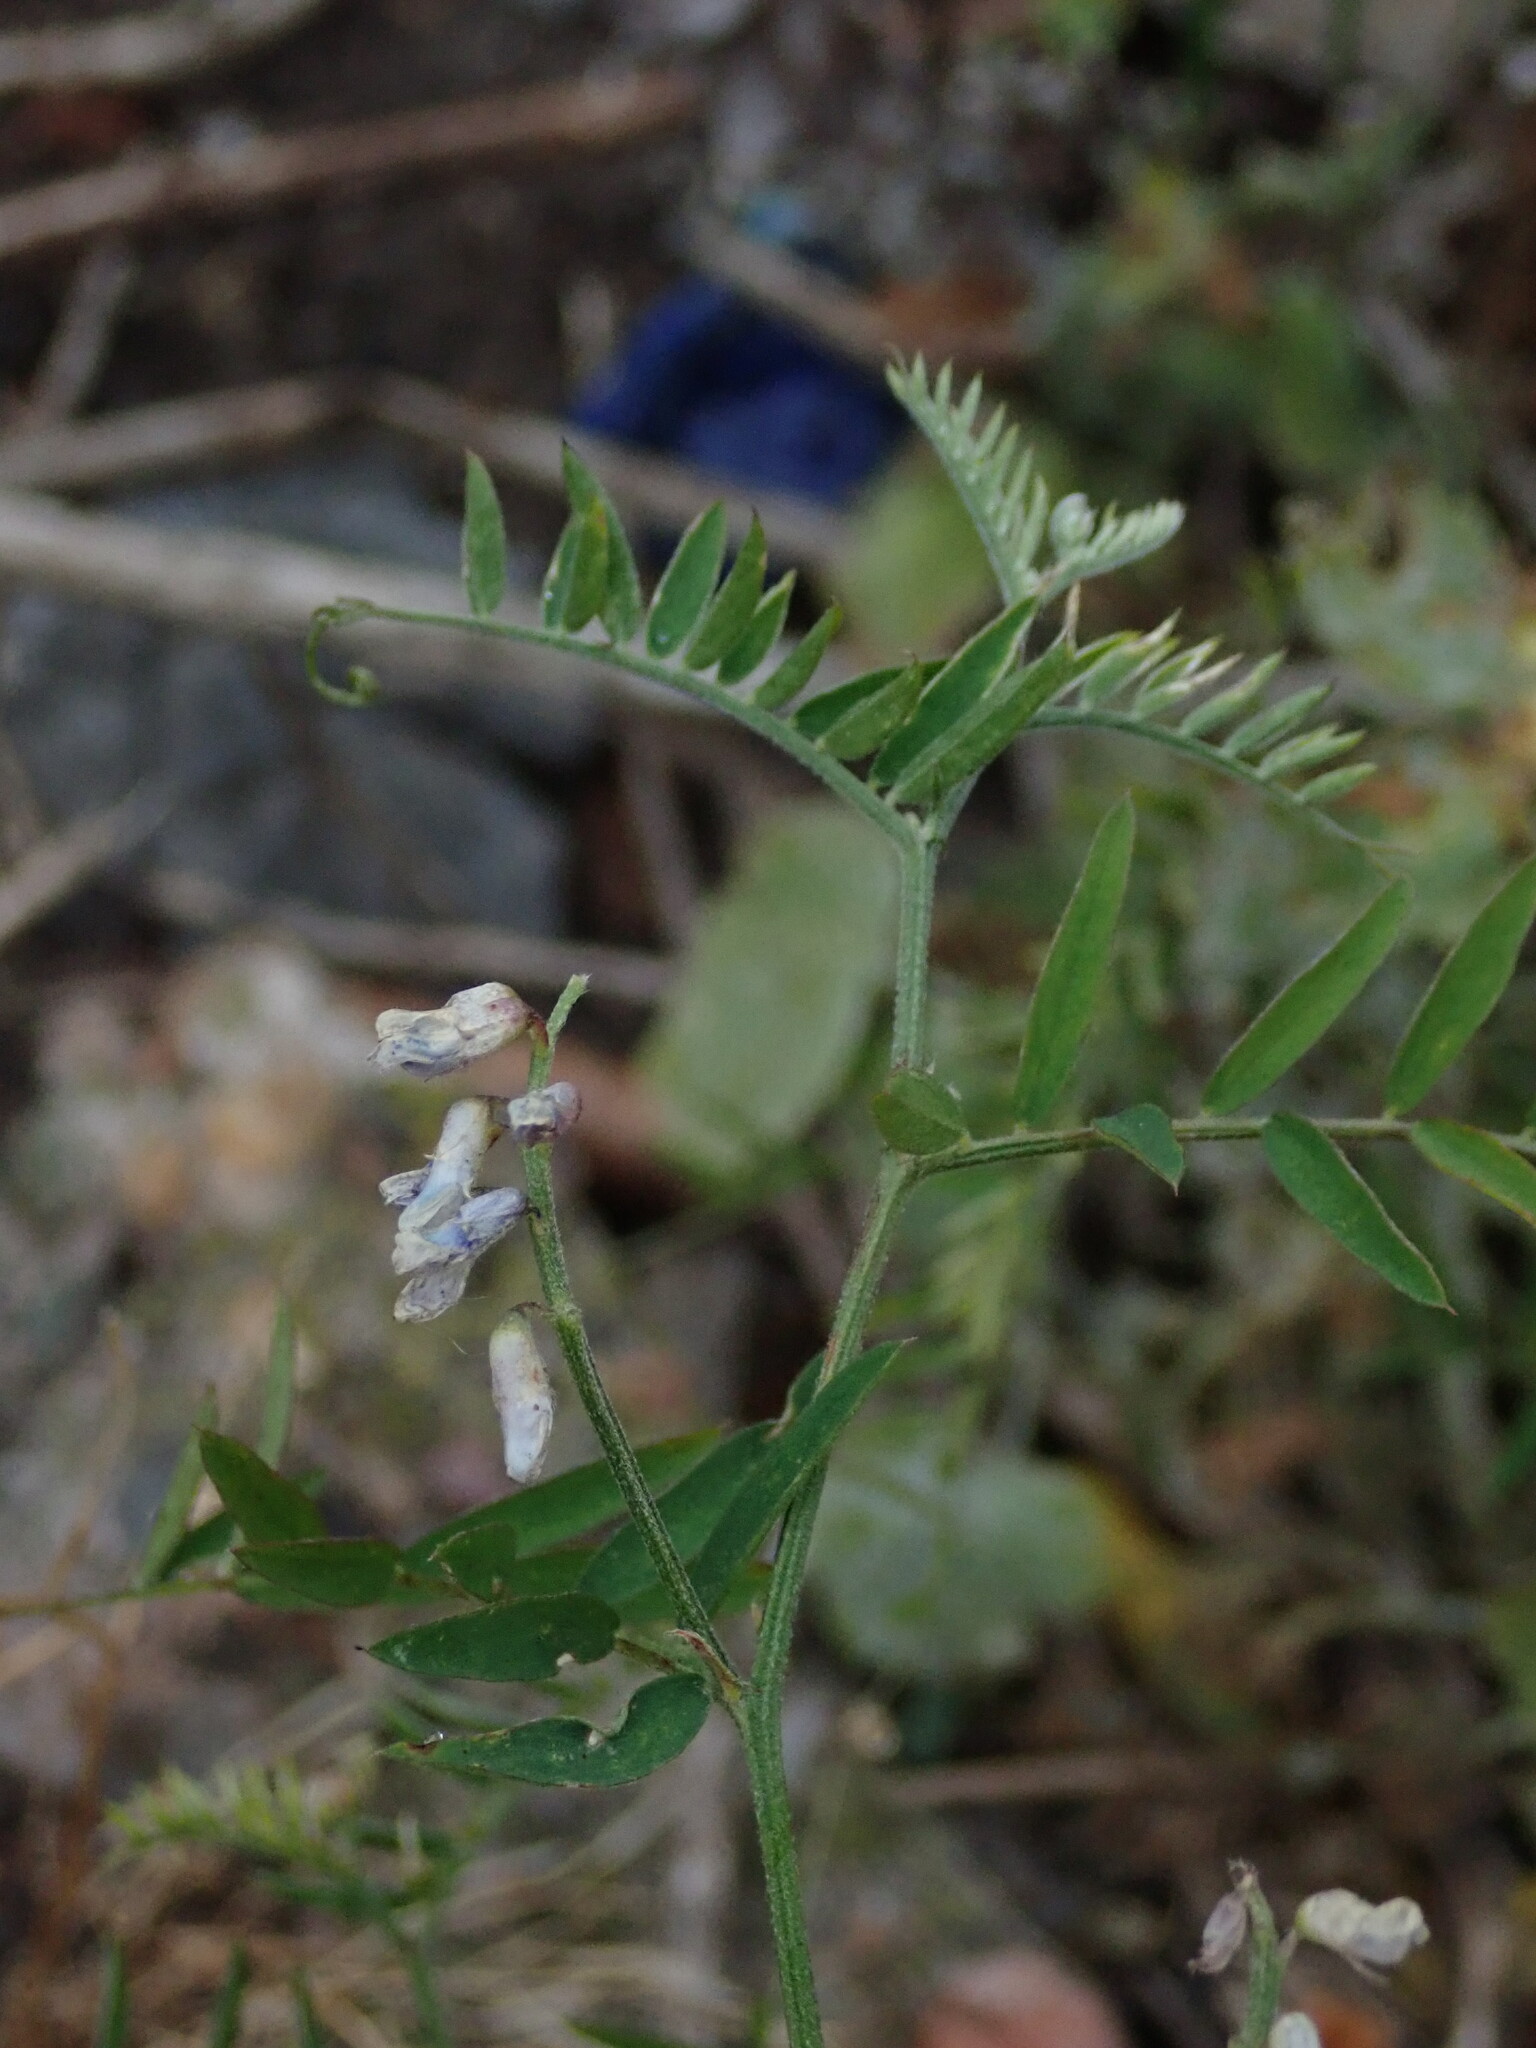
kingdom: Plantae
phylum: Tracheophyta
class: Magnoliopsida
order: Fabales
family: Fabaceae
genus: Vicia
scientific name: Vicia cracca
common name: Bird vetch
